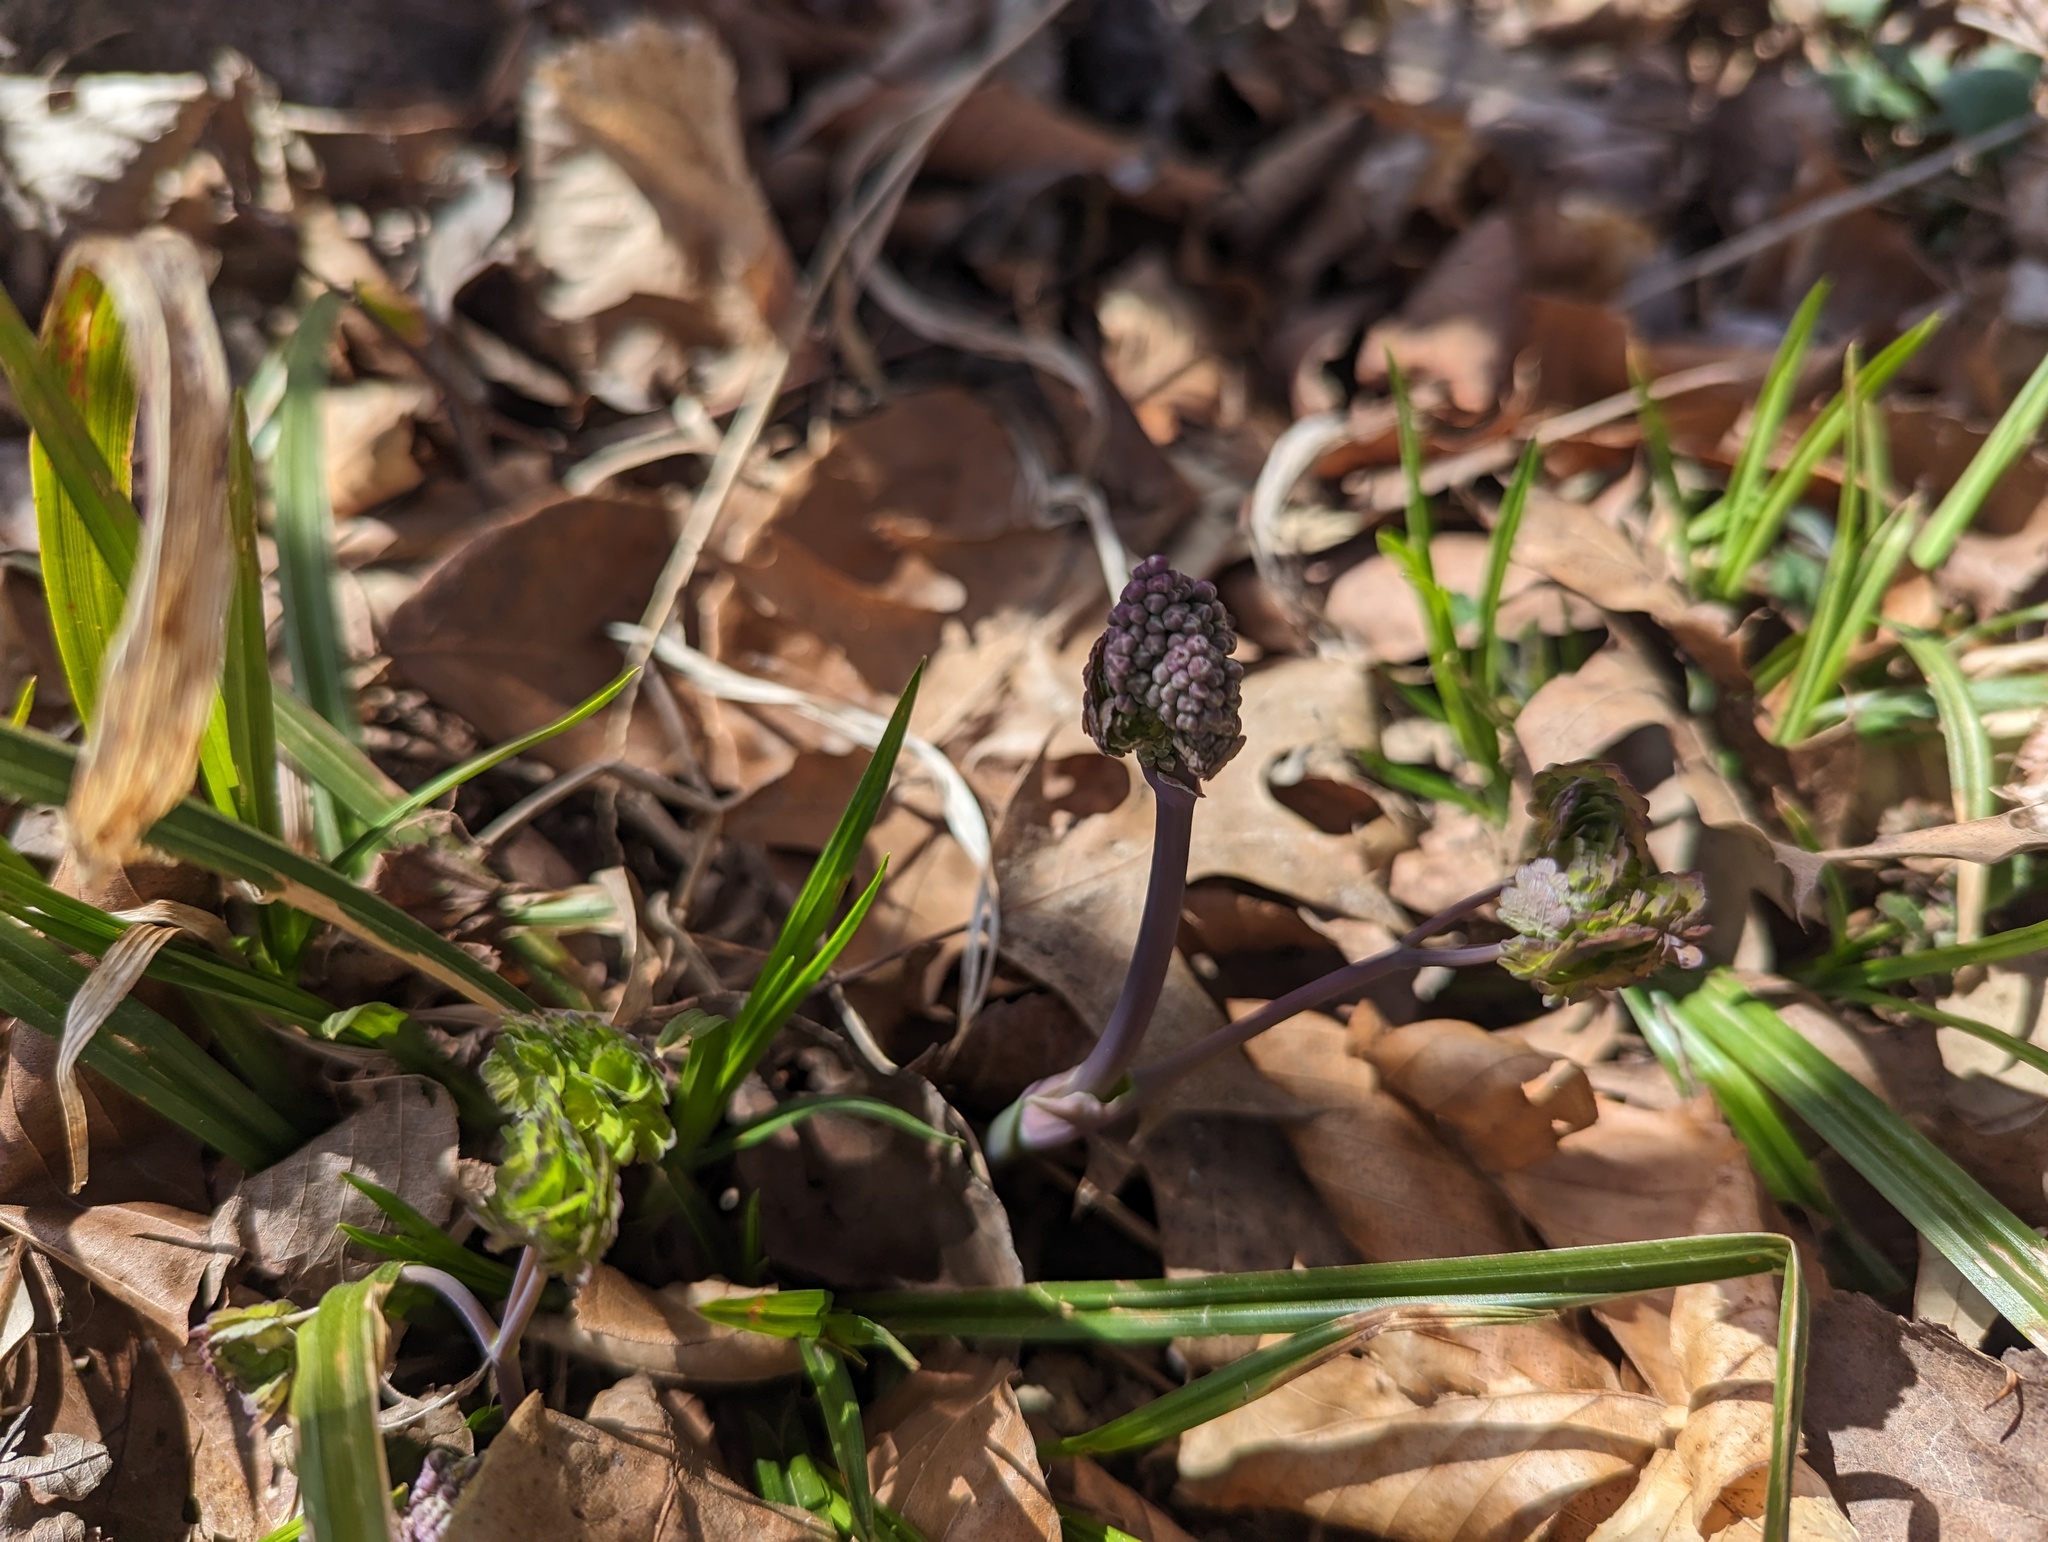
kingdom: Plantae
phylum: Tracheophyta
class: Magnoliopsida
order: Ranunculales
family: Ranunculaceae
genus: Thalictrum
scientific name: Thalictrum dioicum
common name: Early meadow-rue
